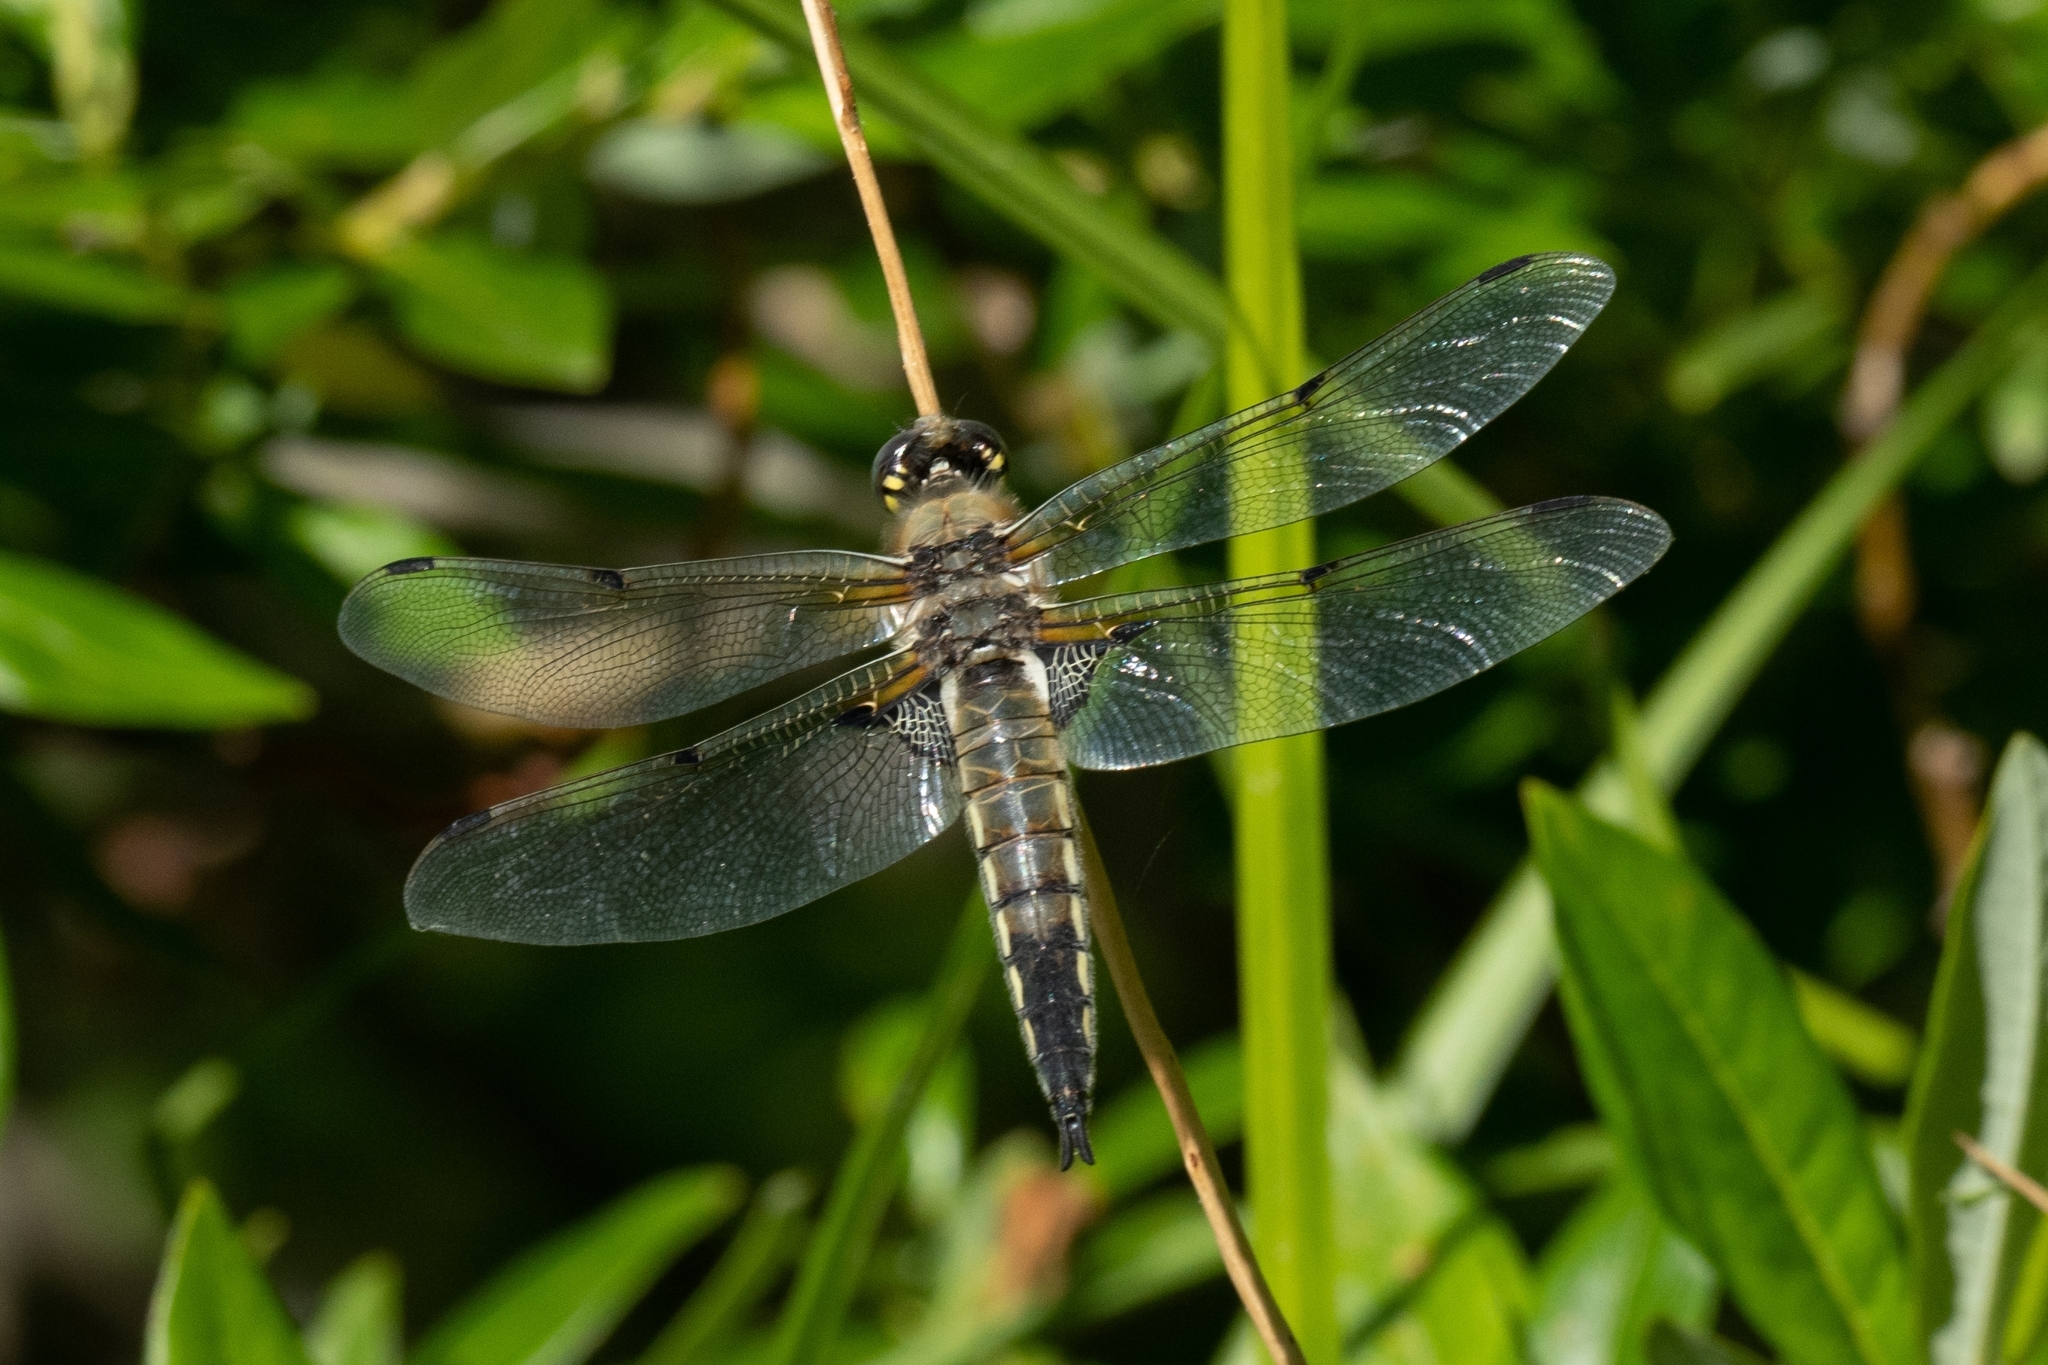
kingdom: Animalia
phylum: Arthropoda
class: Insecta
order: Odonata
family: Libellulidae
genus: Libellula
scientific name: Libellula quadrimaculata
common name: Four-spotted chaser
